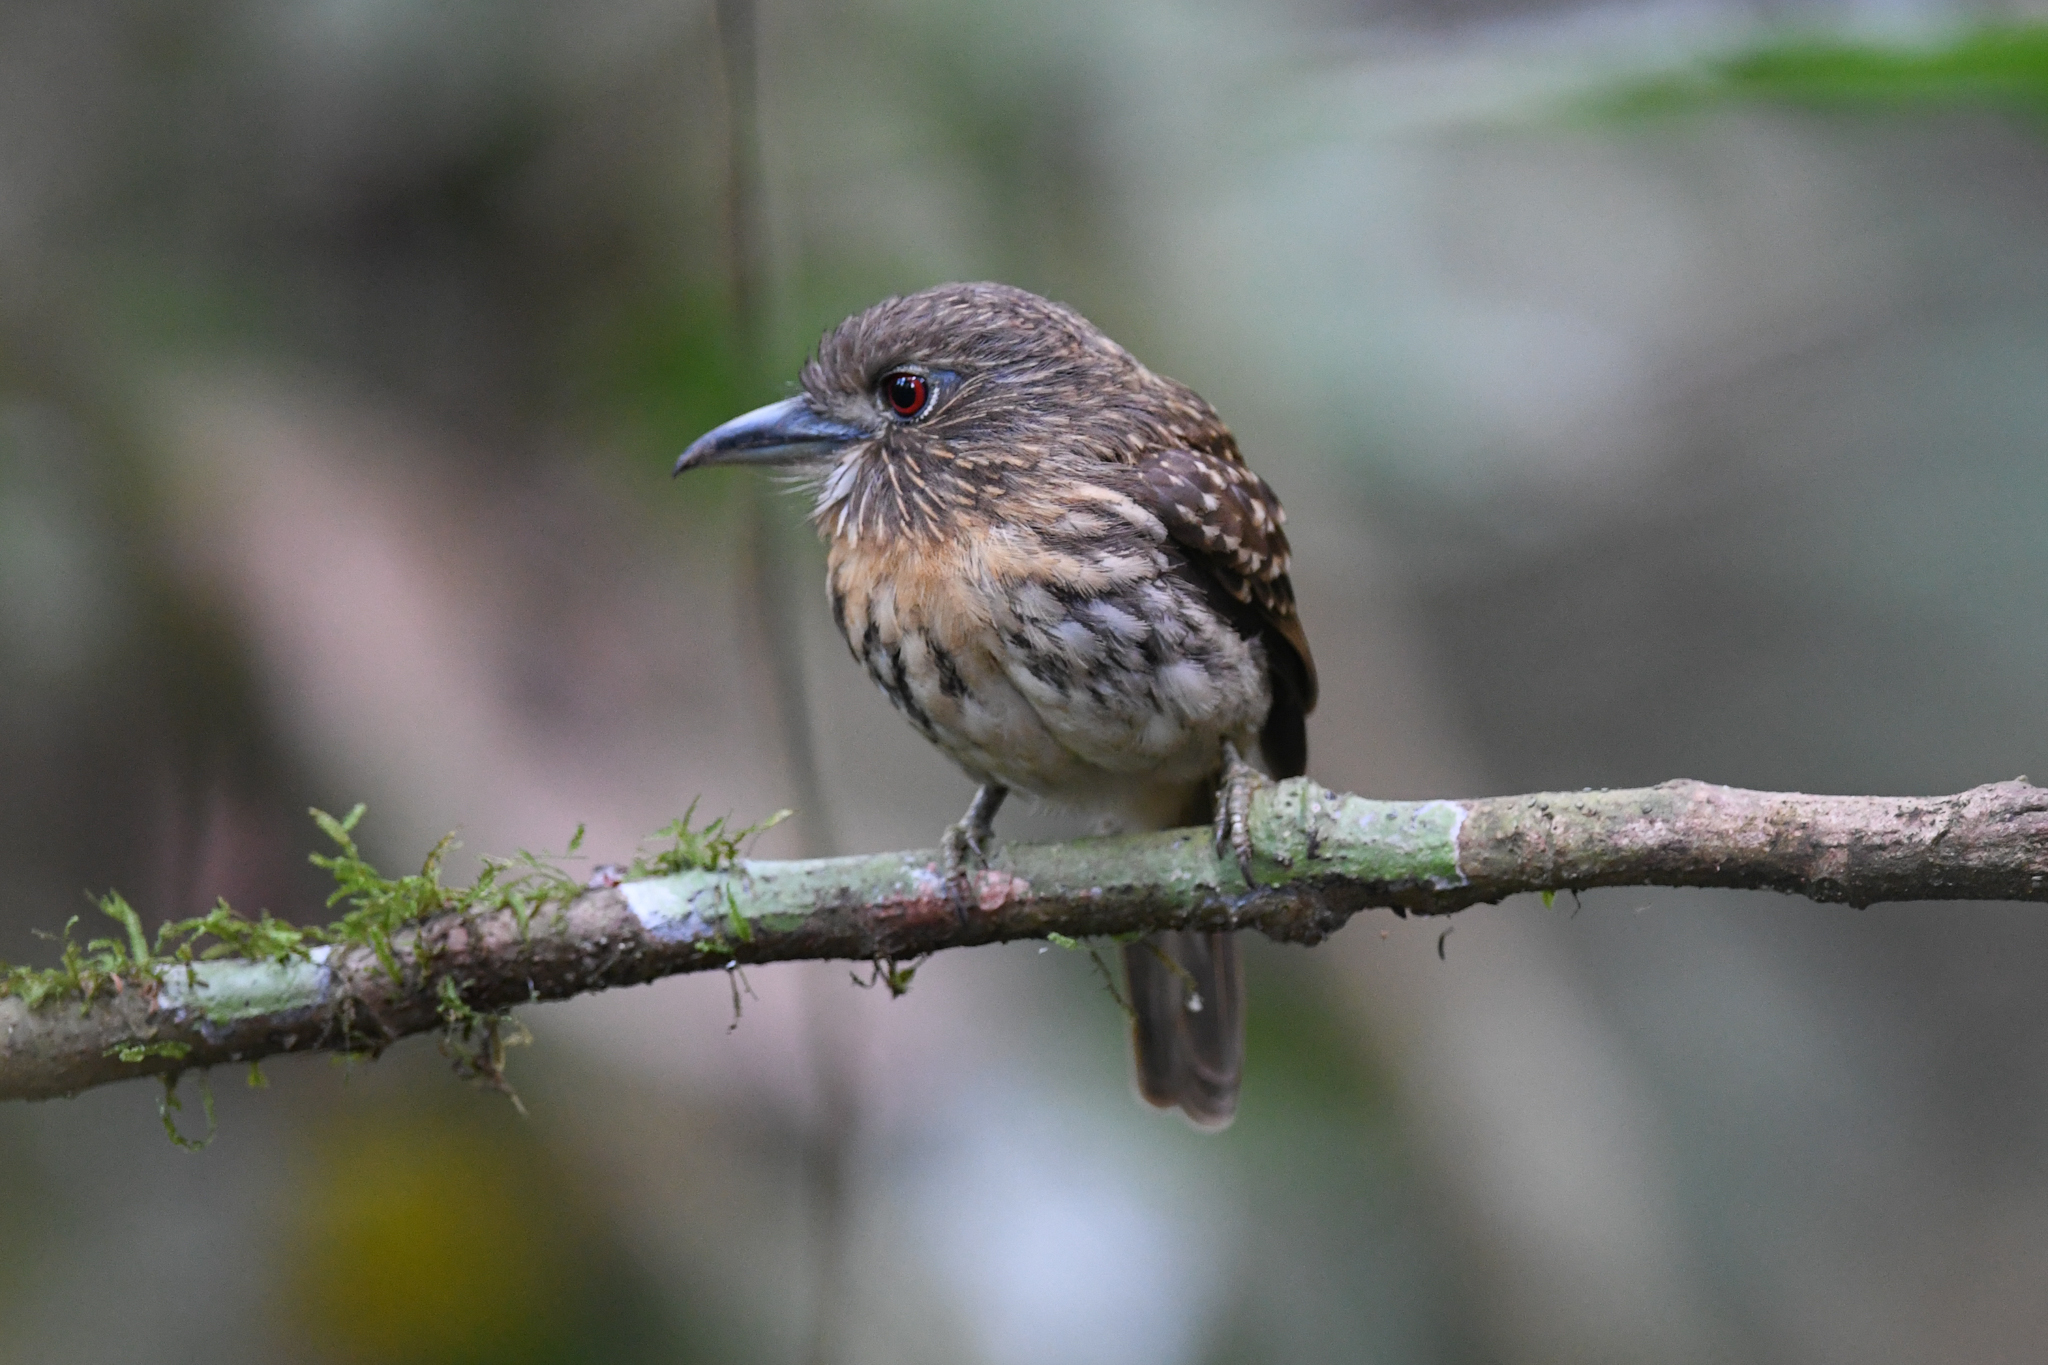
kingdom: Animalia
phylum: Chordata
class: Aves
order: Piciformes
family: Bucconidae
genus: Malacoptila
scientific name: Malacoptila panamensis
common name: White-whiskered puffbird
